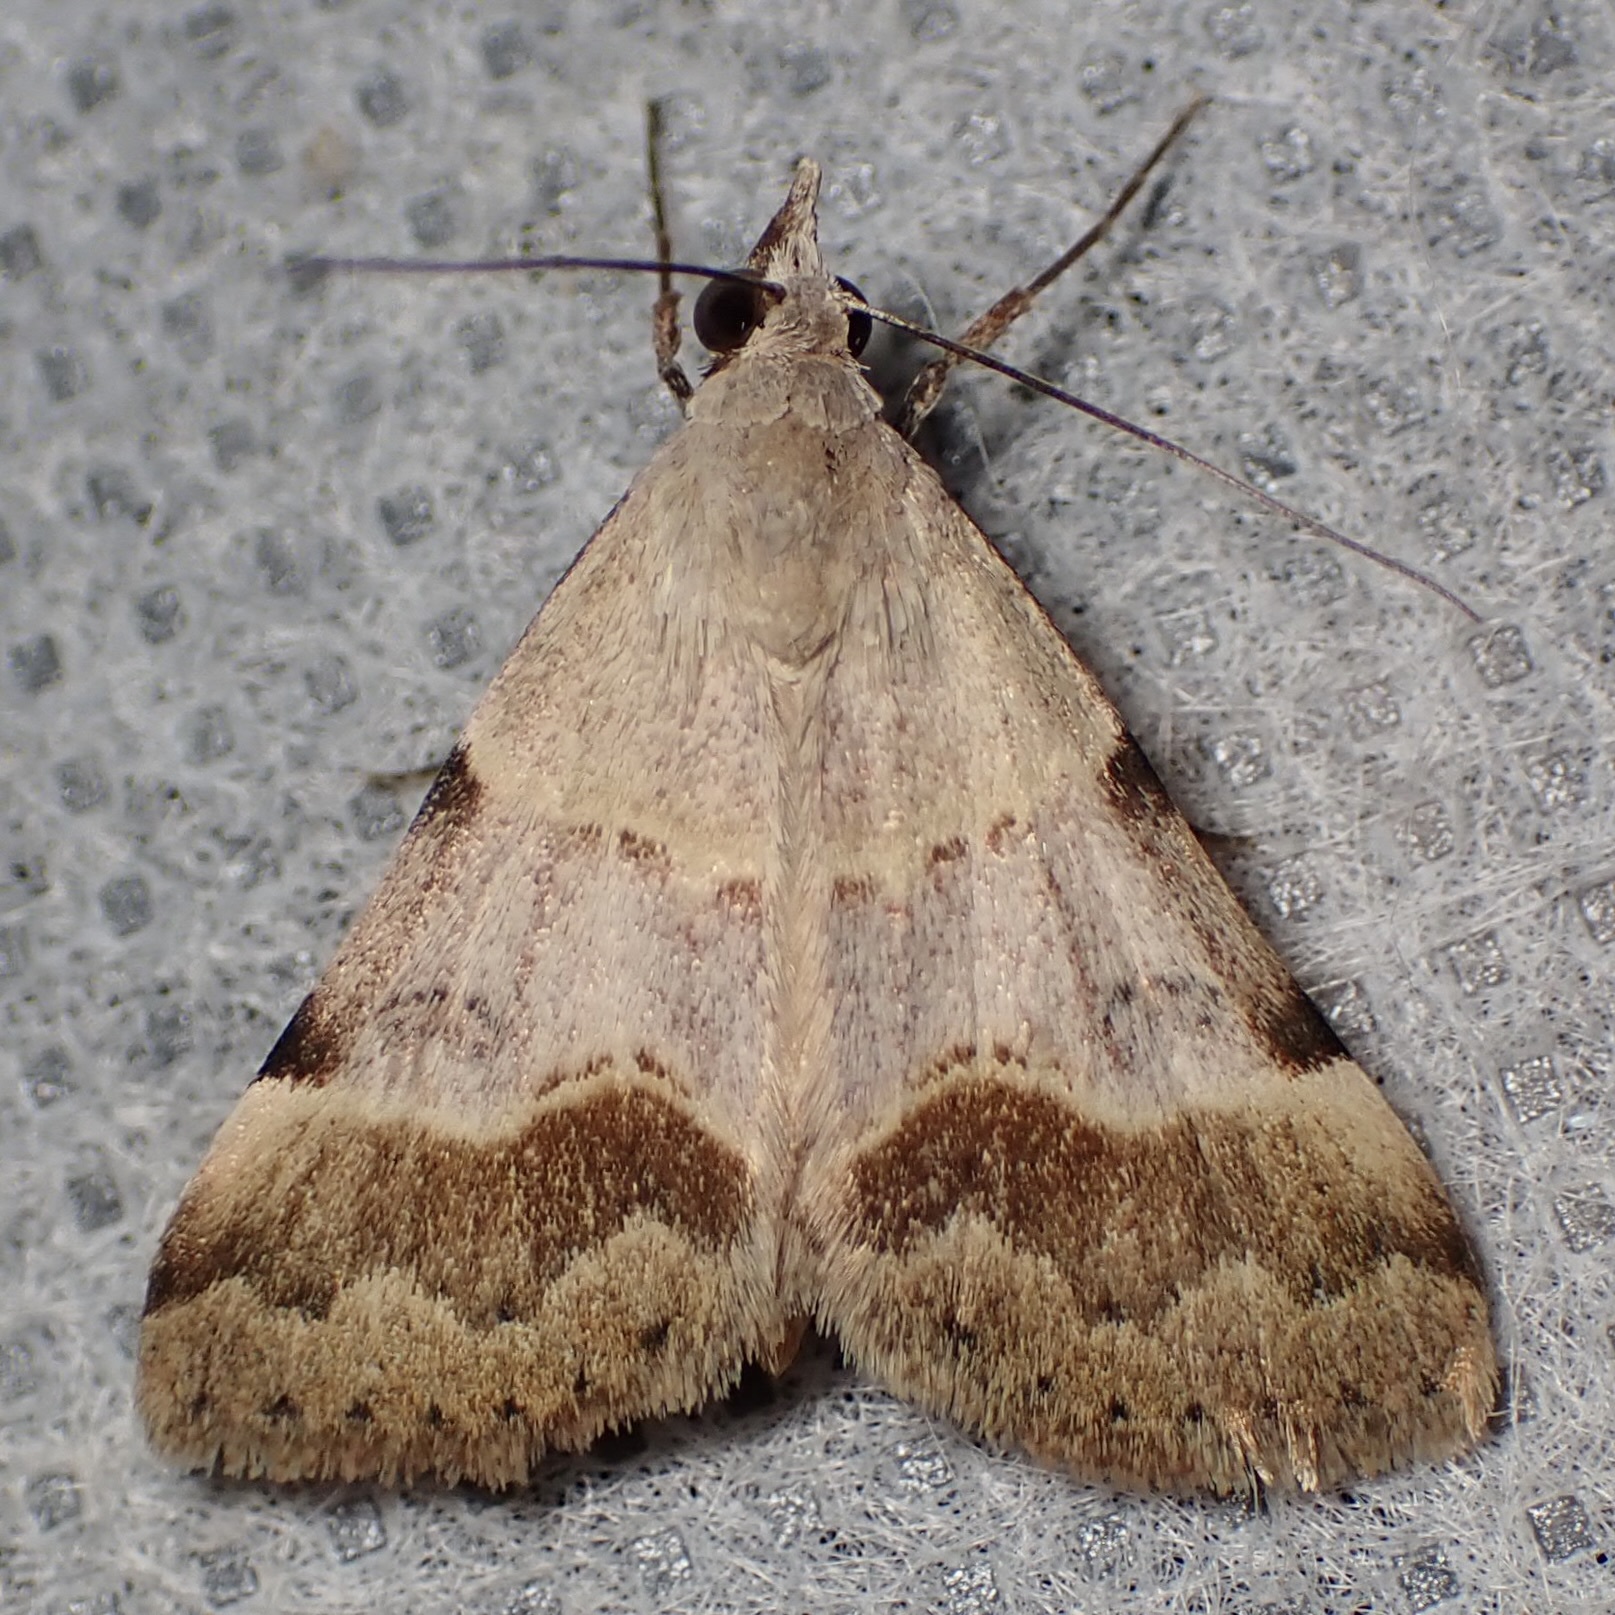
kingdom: Animalia
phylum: Arthropoda
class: Insecta
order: Lepidoptera
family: Erebidae
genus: Hemeroplanis
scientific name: Hemeroplanis incusalis
